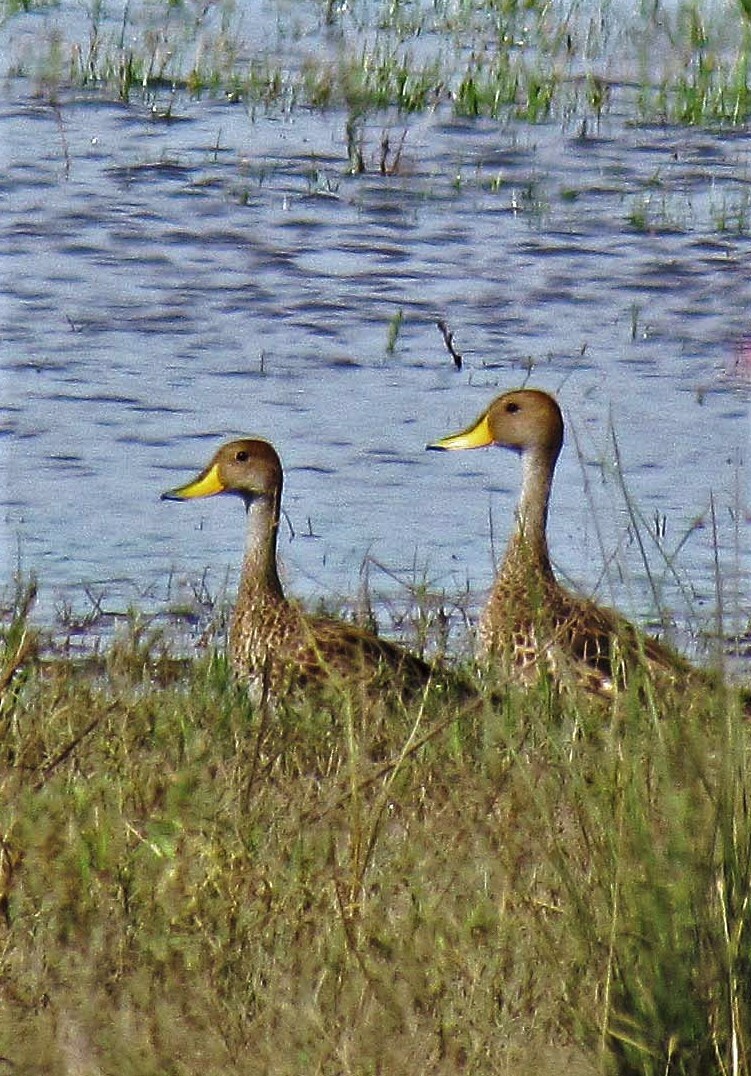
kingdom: Animalia
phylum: Chordata
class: Aves
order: Anseriformes
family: Anatidae
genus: Anas
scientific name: Anas georgica
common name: Yellow-billed pintail
